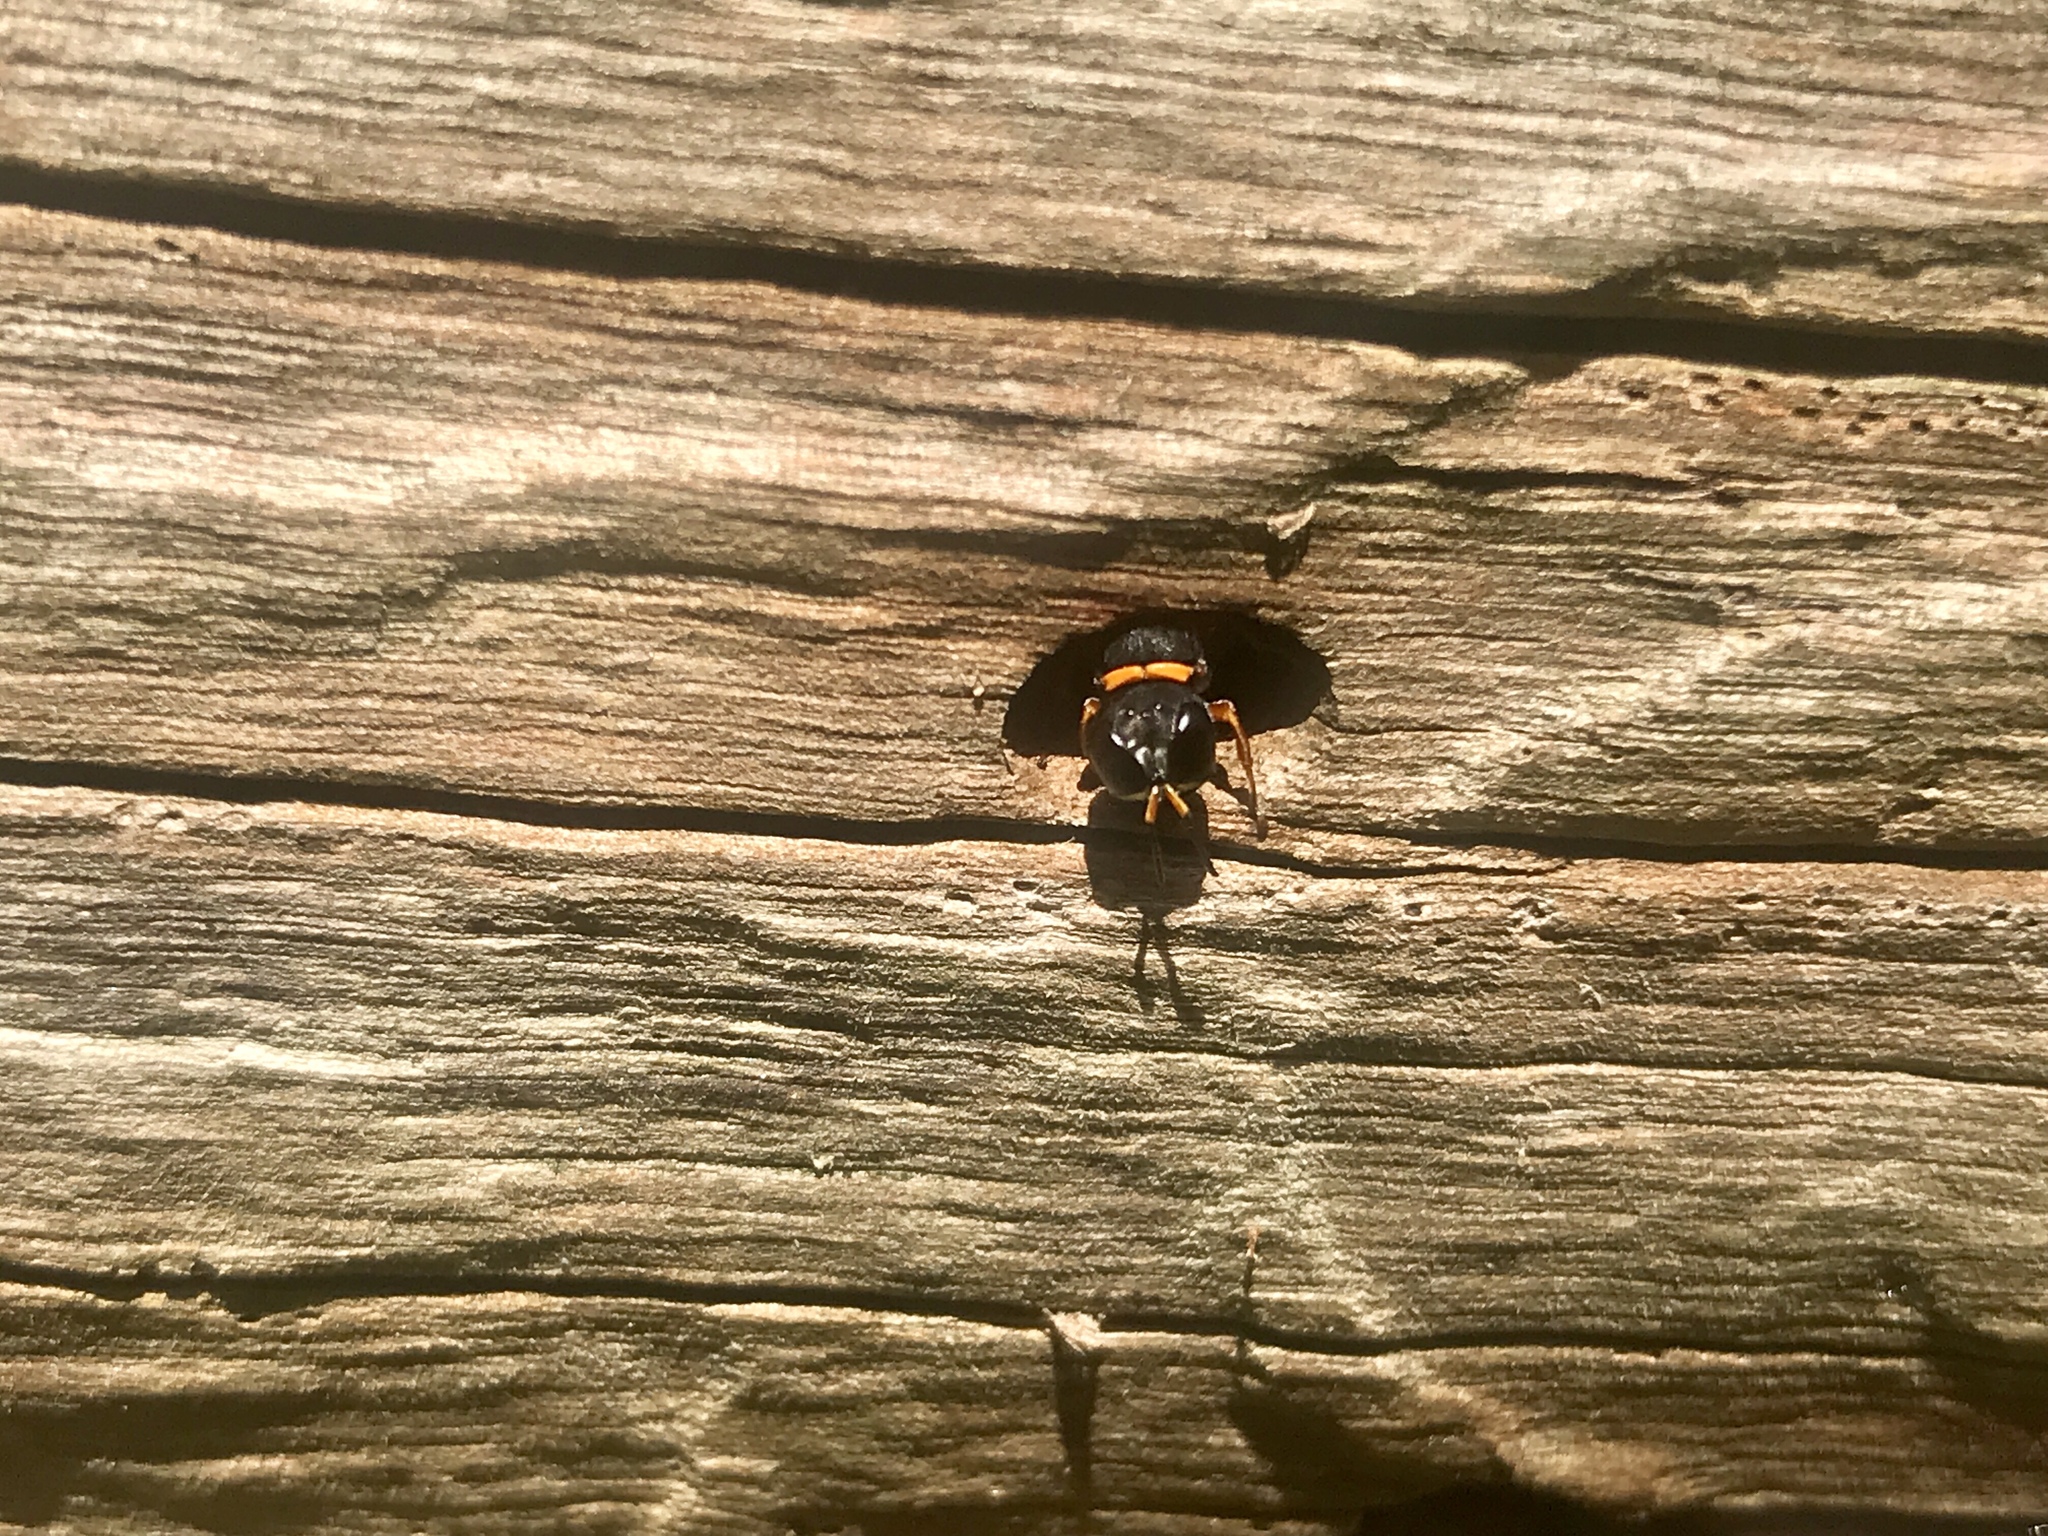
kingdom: Animalia
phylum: Arthropoda
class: Insecta
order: Hymenoptera
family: Crabronidae
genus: Williamsita
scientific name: Williamsita
